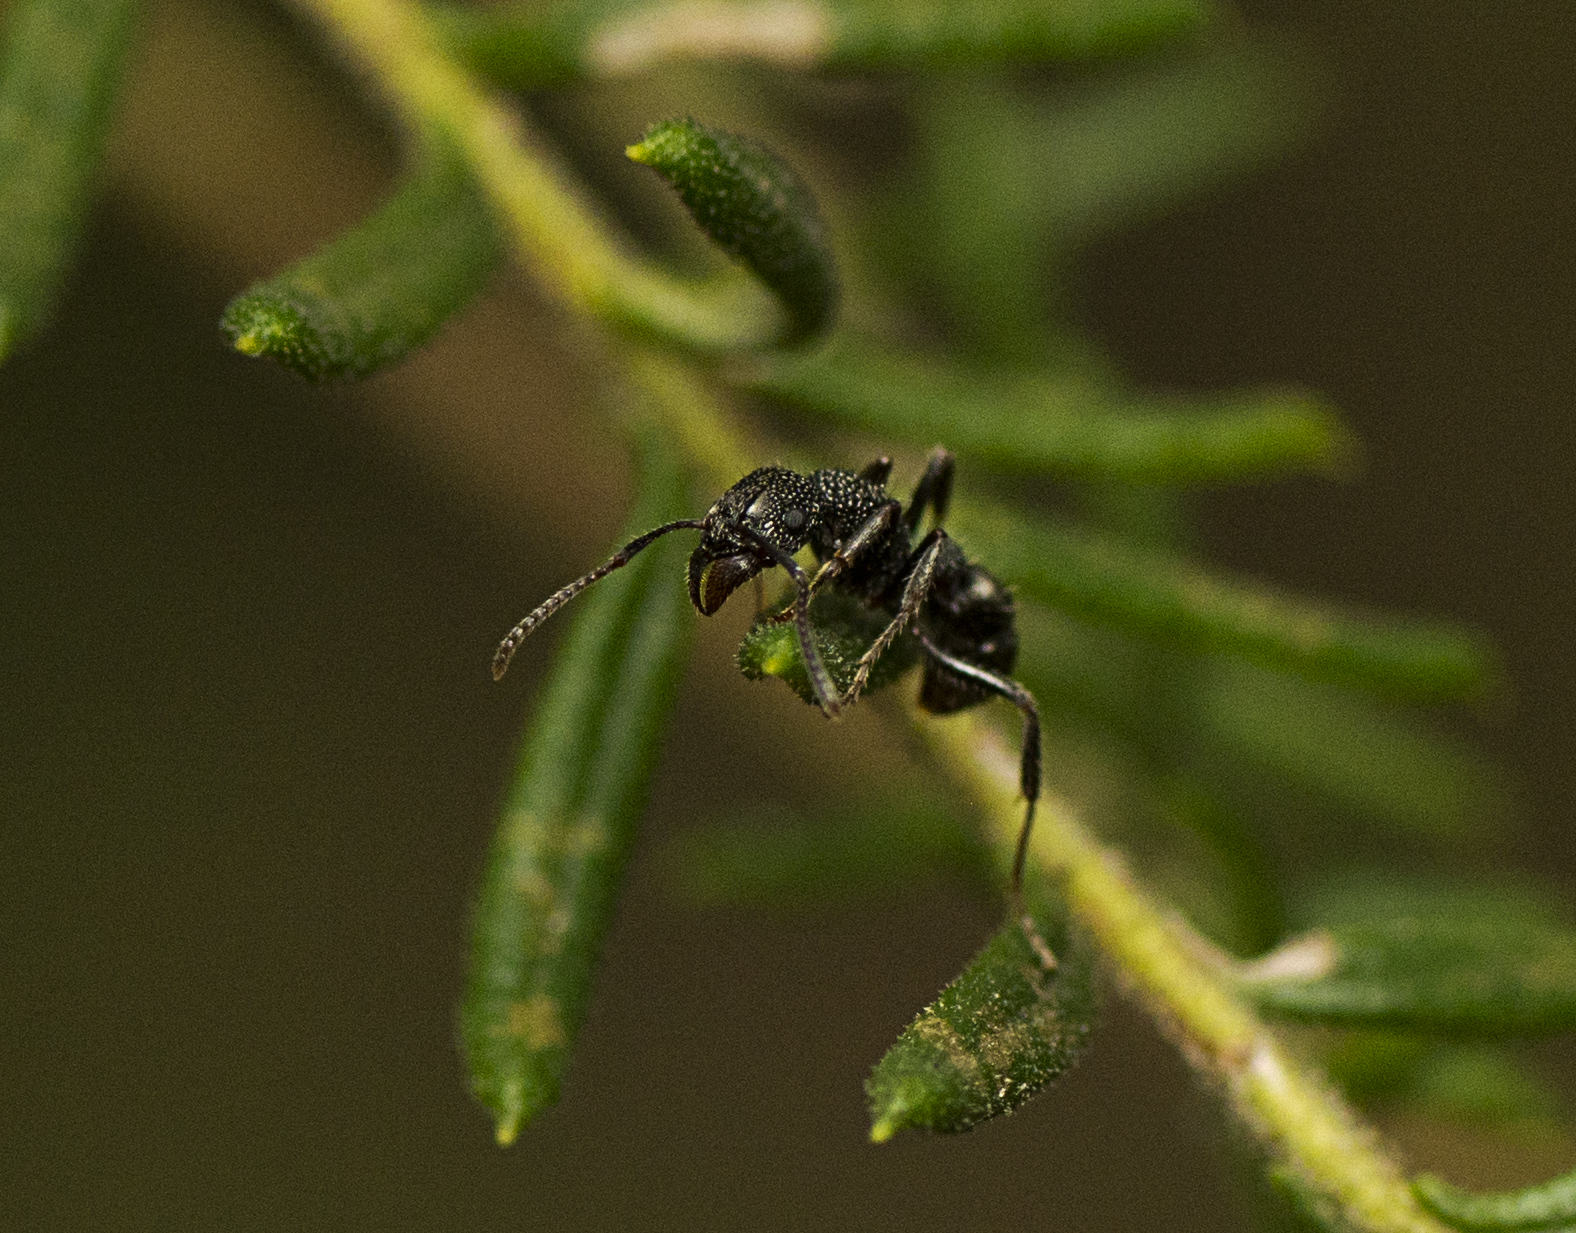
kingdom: Animalia
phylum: Arthropoda
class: Insecta
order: Hymenoptera
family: Formicidae
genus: Rhytidoponera
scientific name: Rhytidoponera anceps
